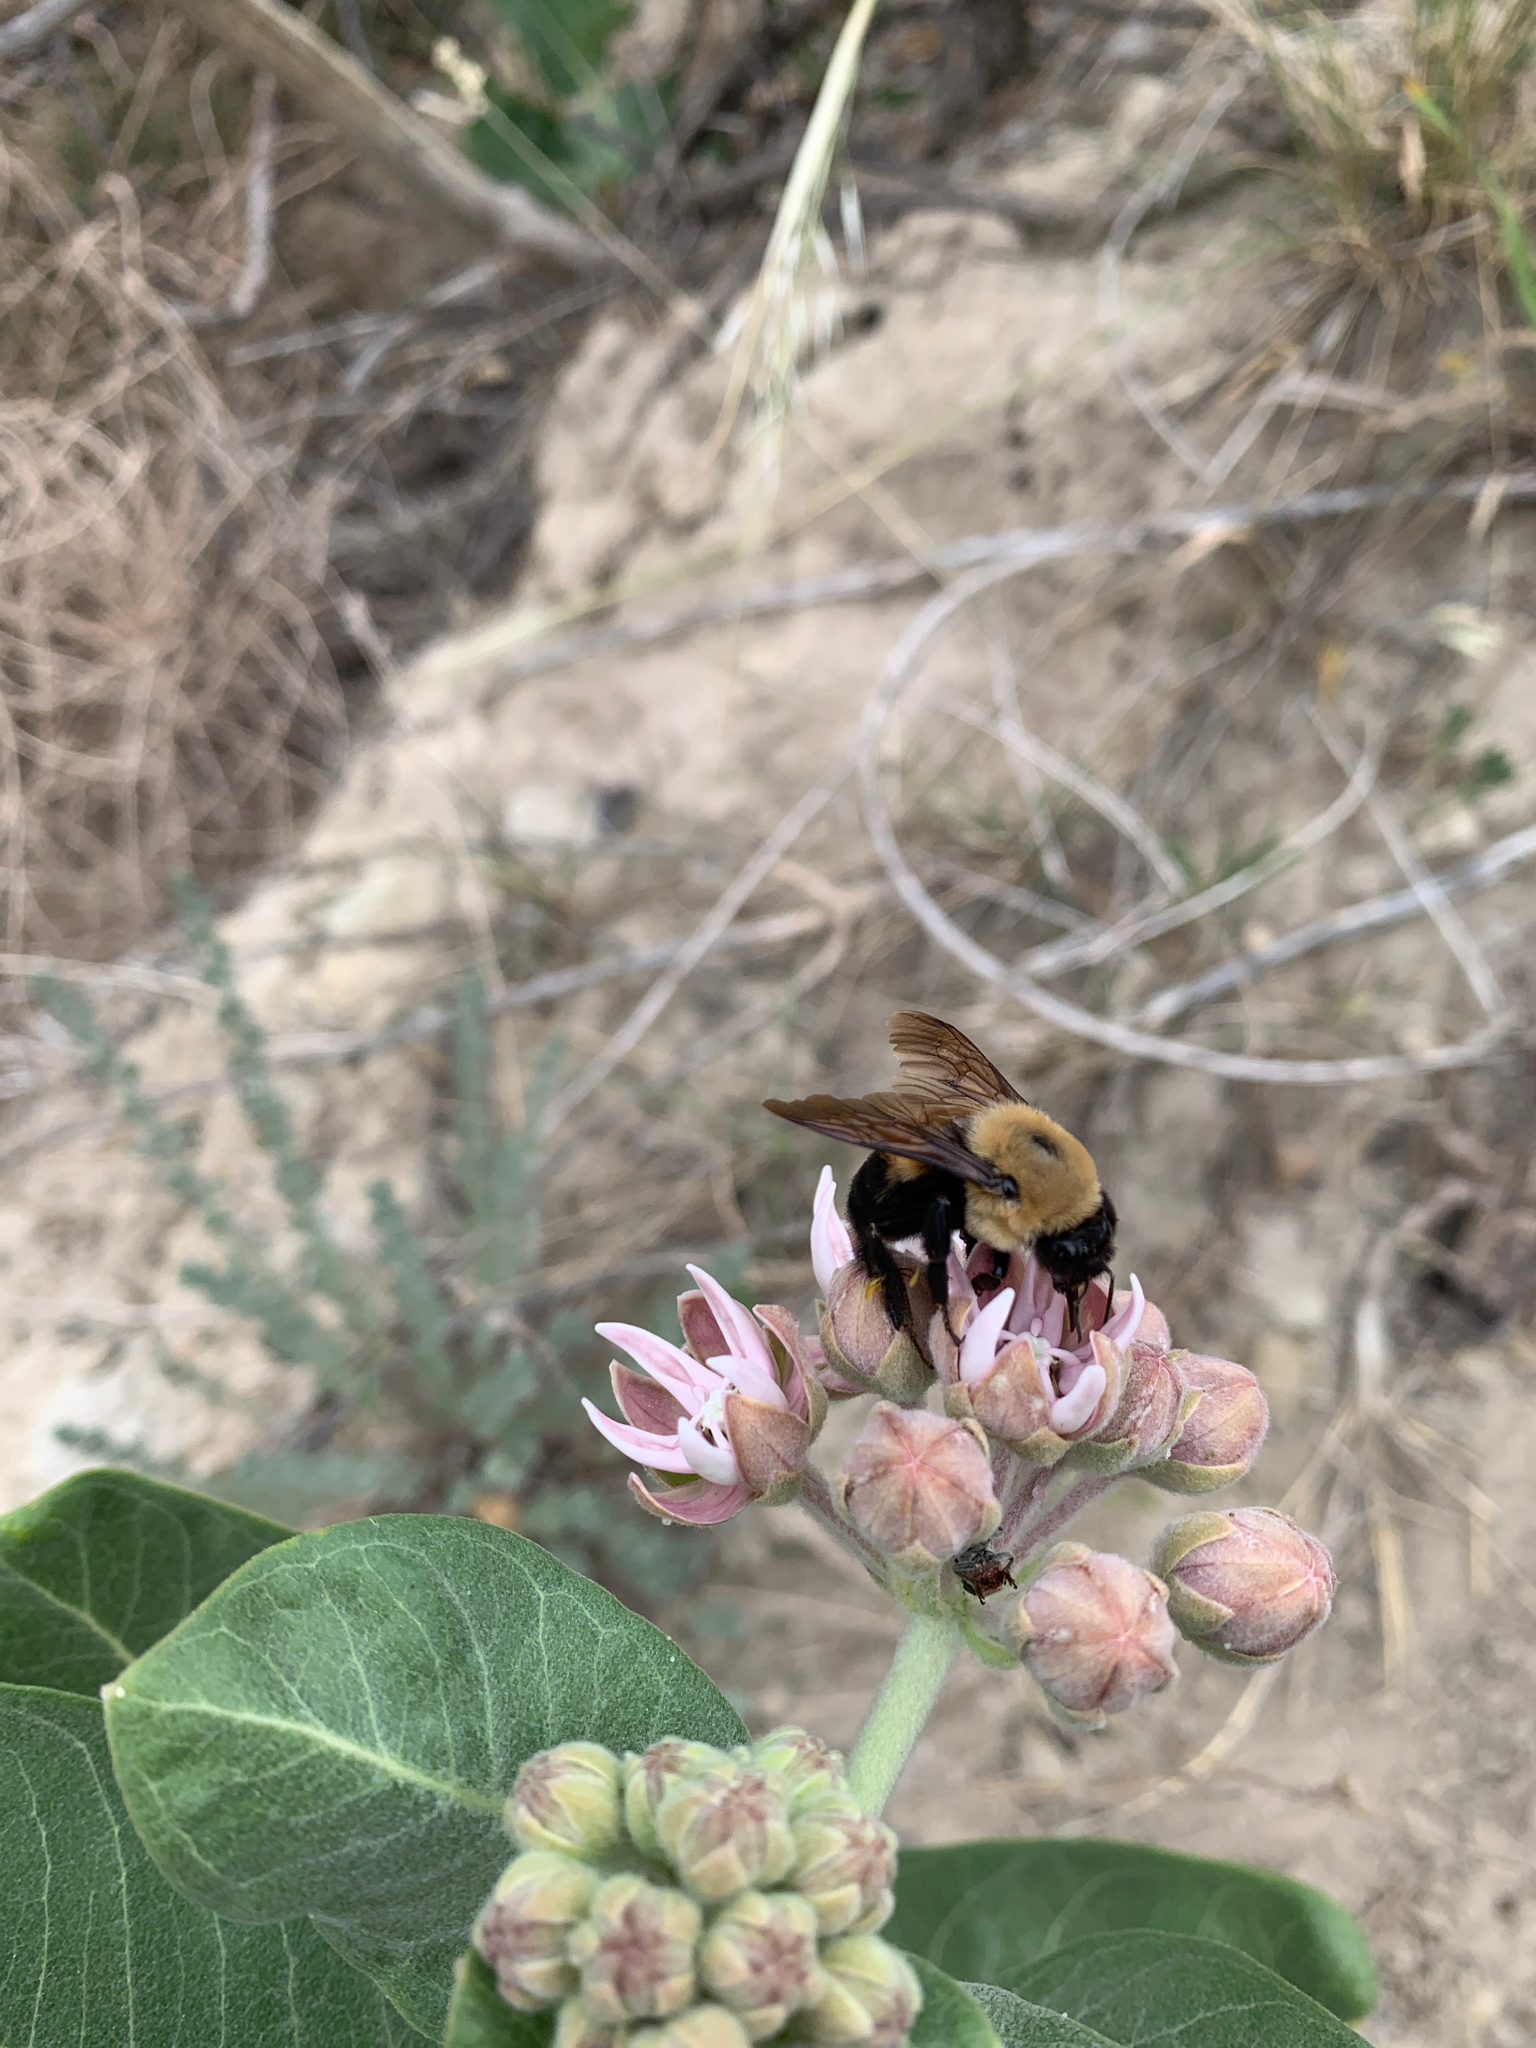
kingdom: Animalia
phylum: Arthropoda
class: Insecta
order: Hymenoptera
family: Apidae
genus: Bombus
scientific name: Bombus griseocollis
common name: Brown-belted bumble bee
